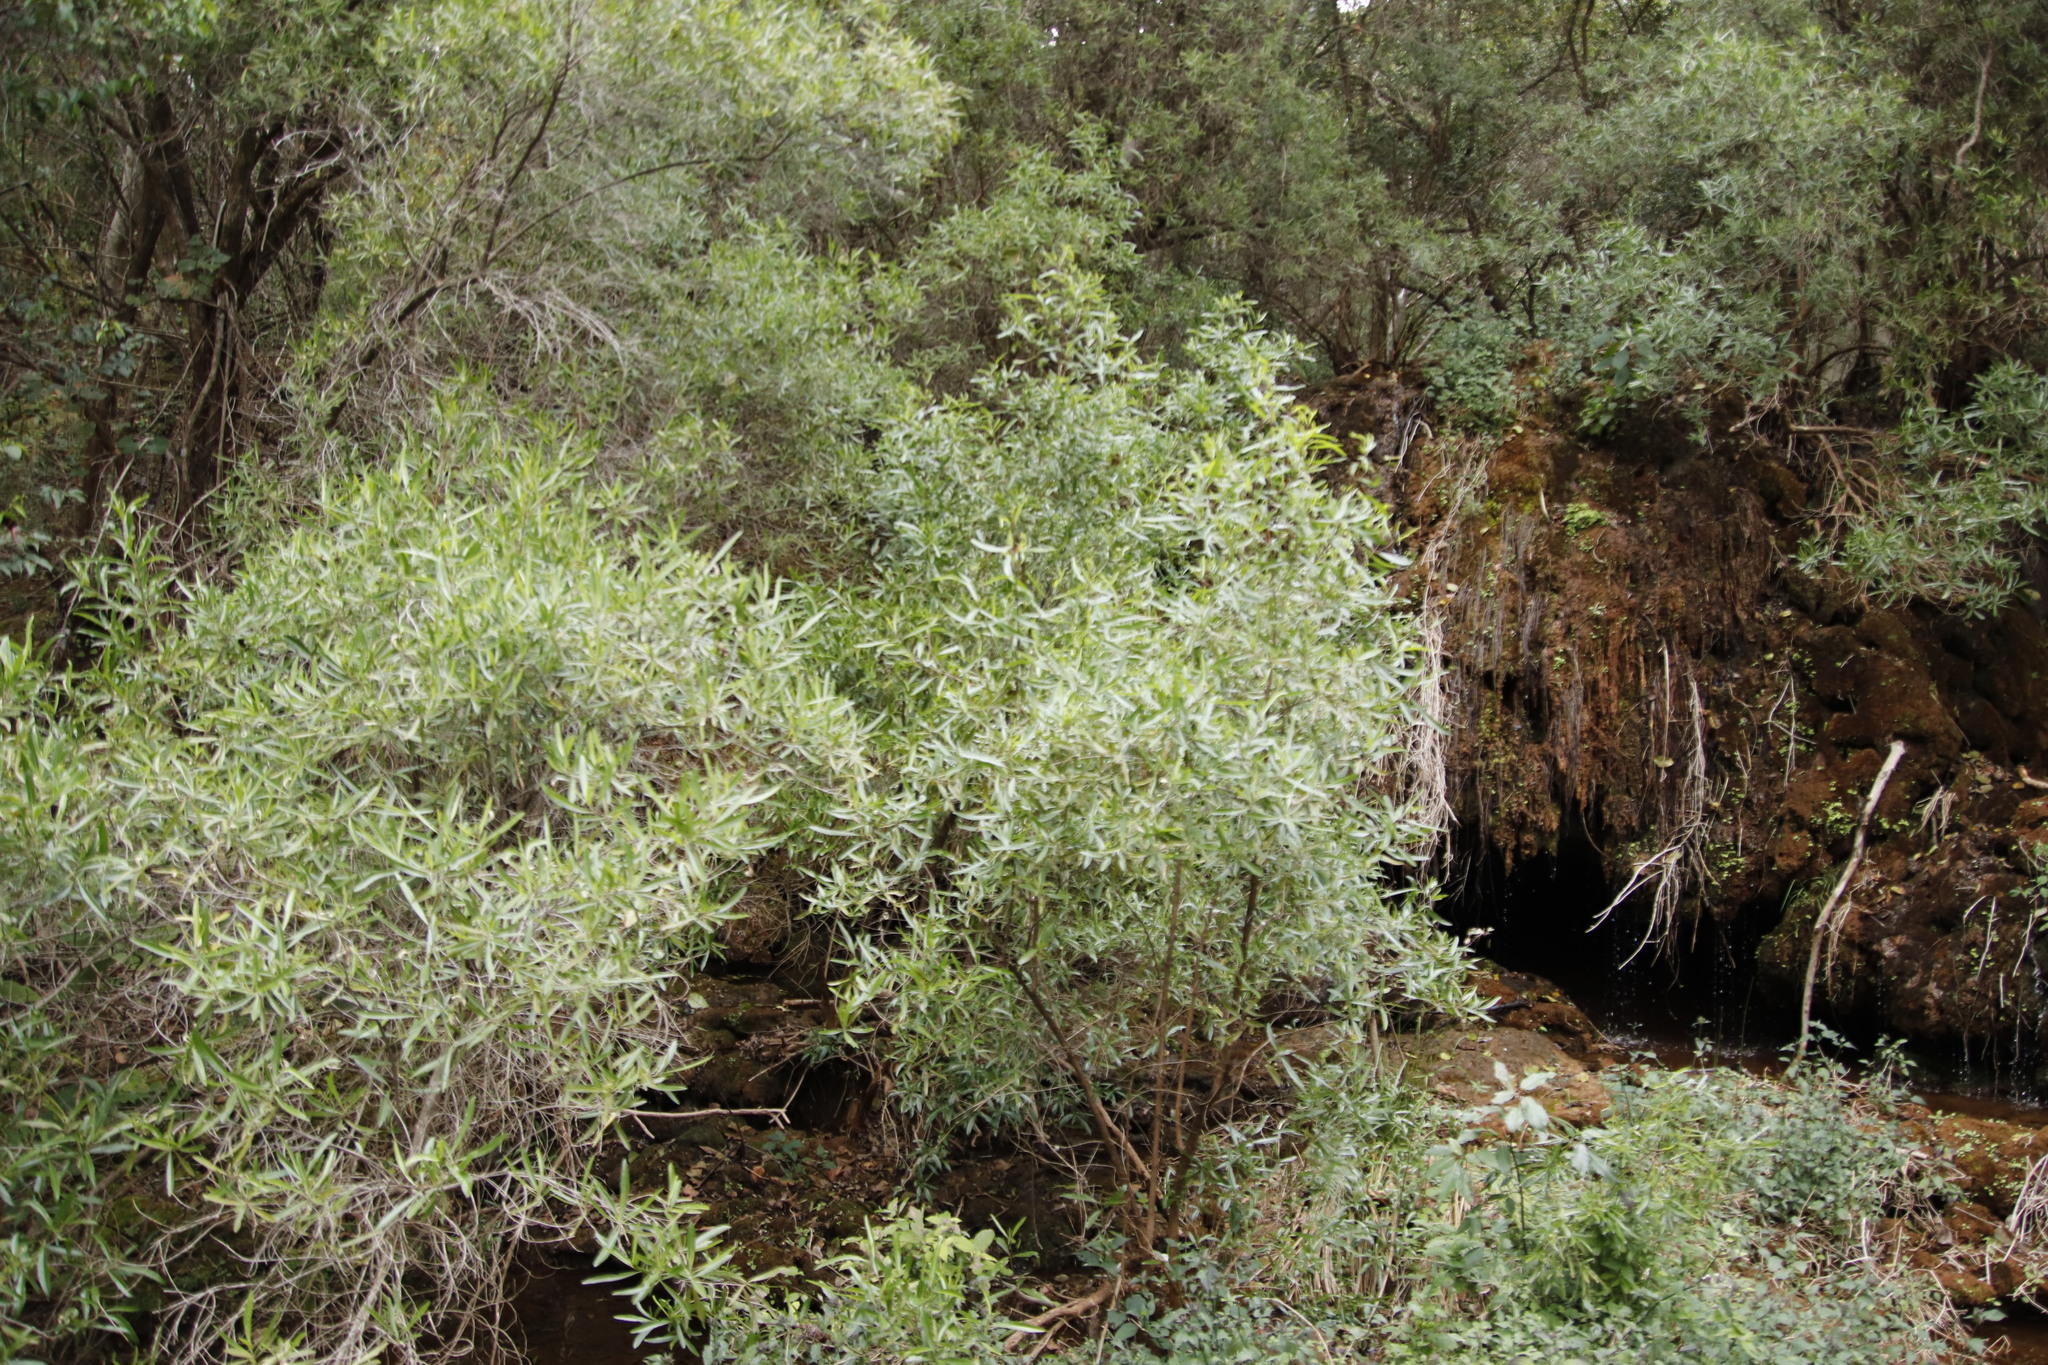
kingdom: Plantae
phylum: Tracheophyta
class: Magnoliopsida
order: Lamiales
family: Stilbaceae
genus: Nuxia
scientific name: Nuxia oppositifolia
